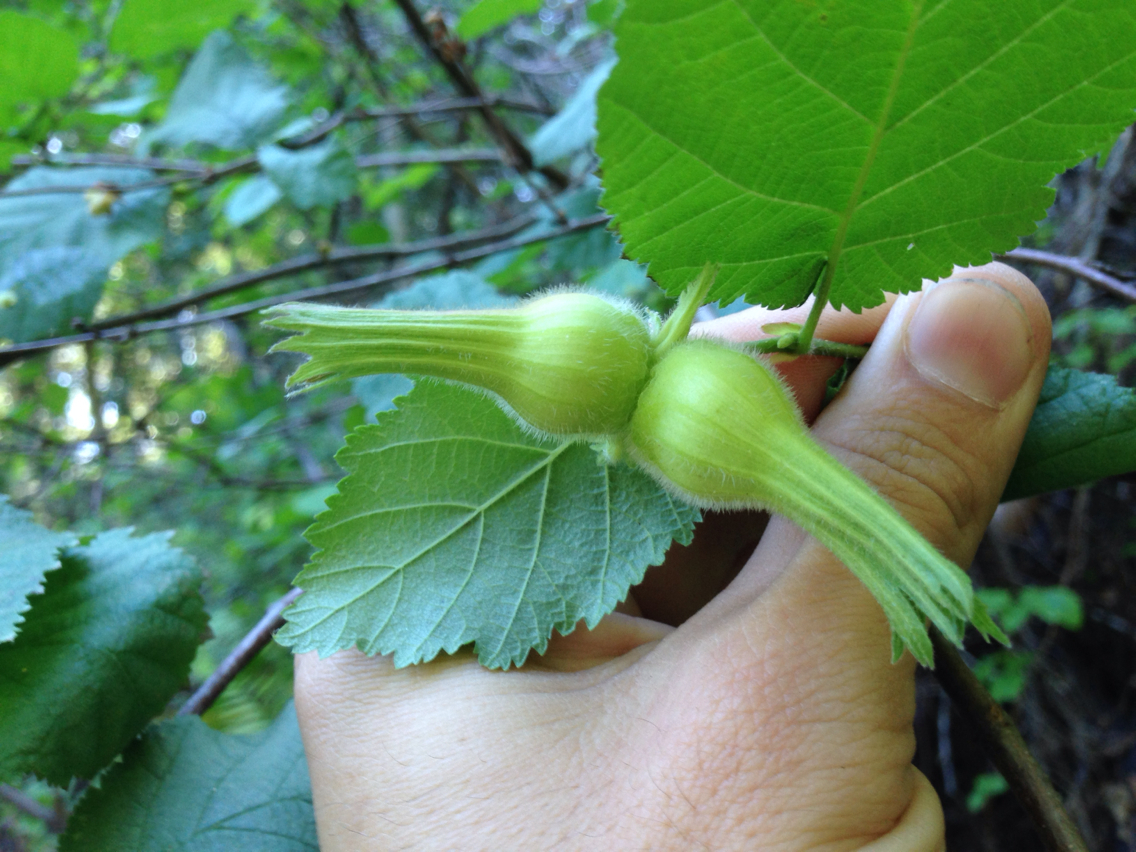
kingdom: Plantae
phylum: Tracheophyta
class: Magnoliopsida
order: Fagales
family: Betulaceae
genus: Corylus
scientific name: Corylus cornuta
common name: Beaked hazel
